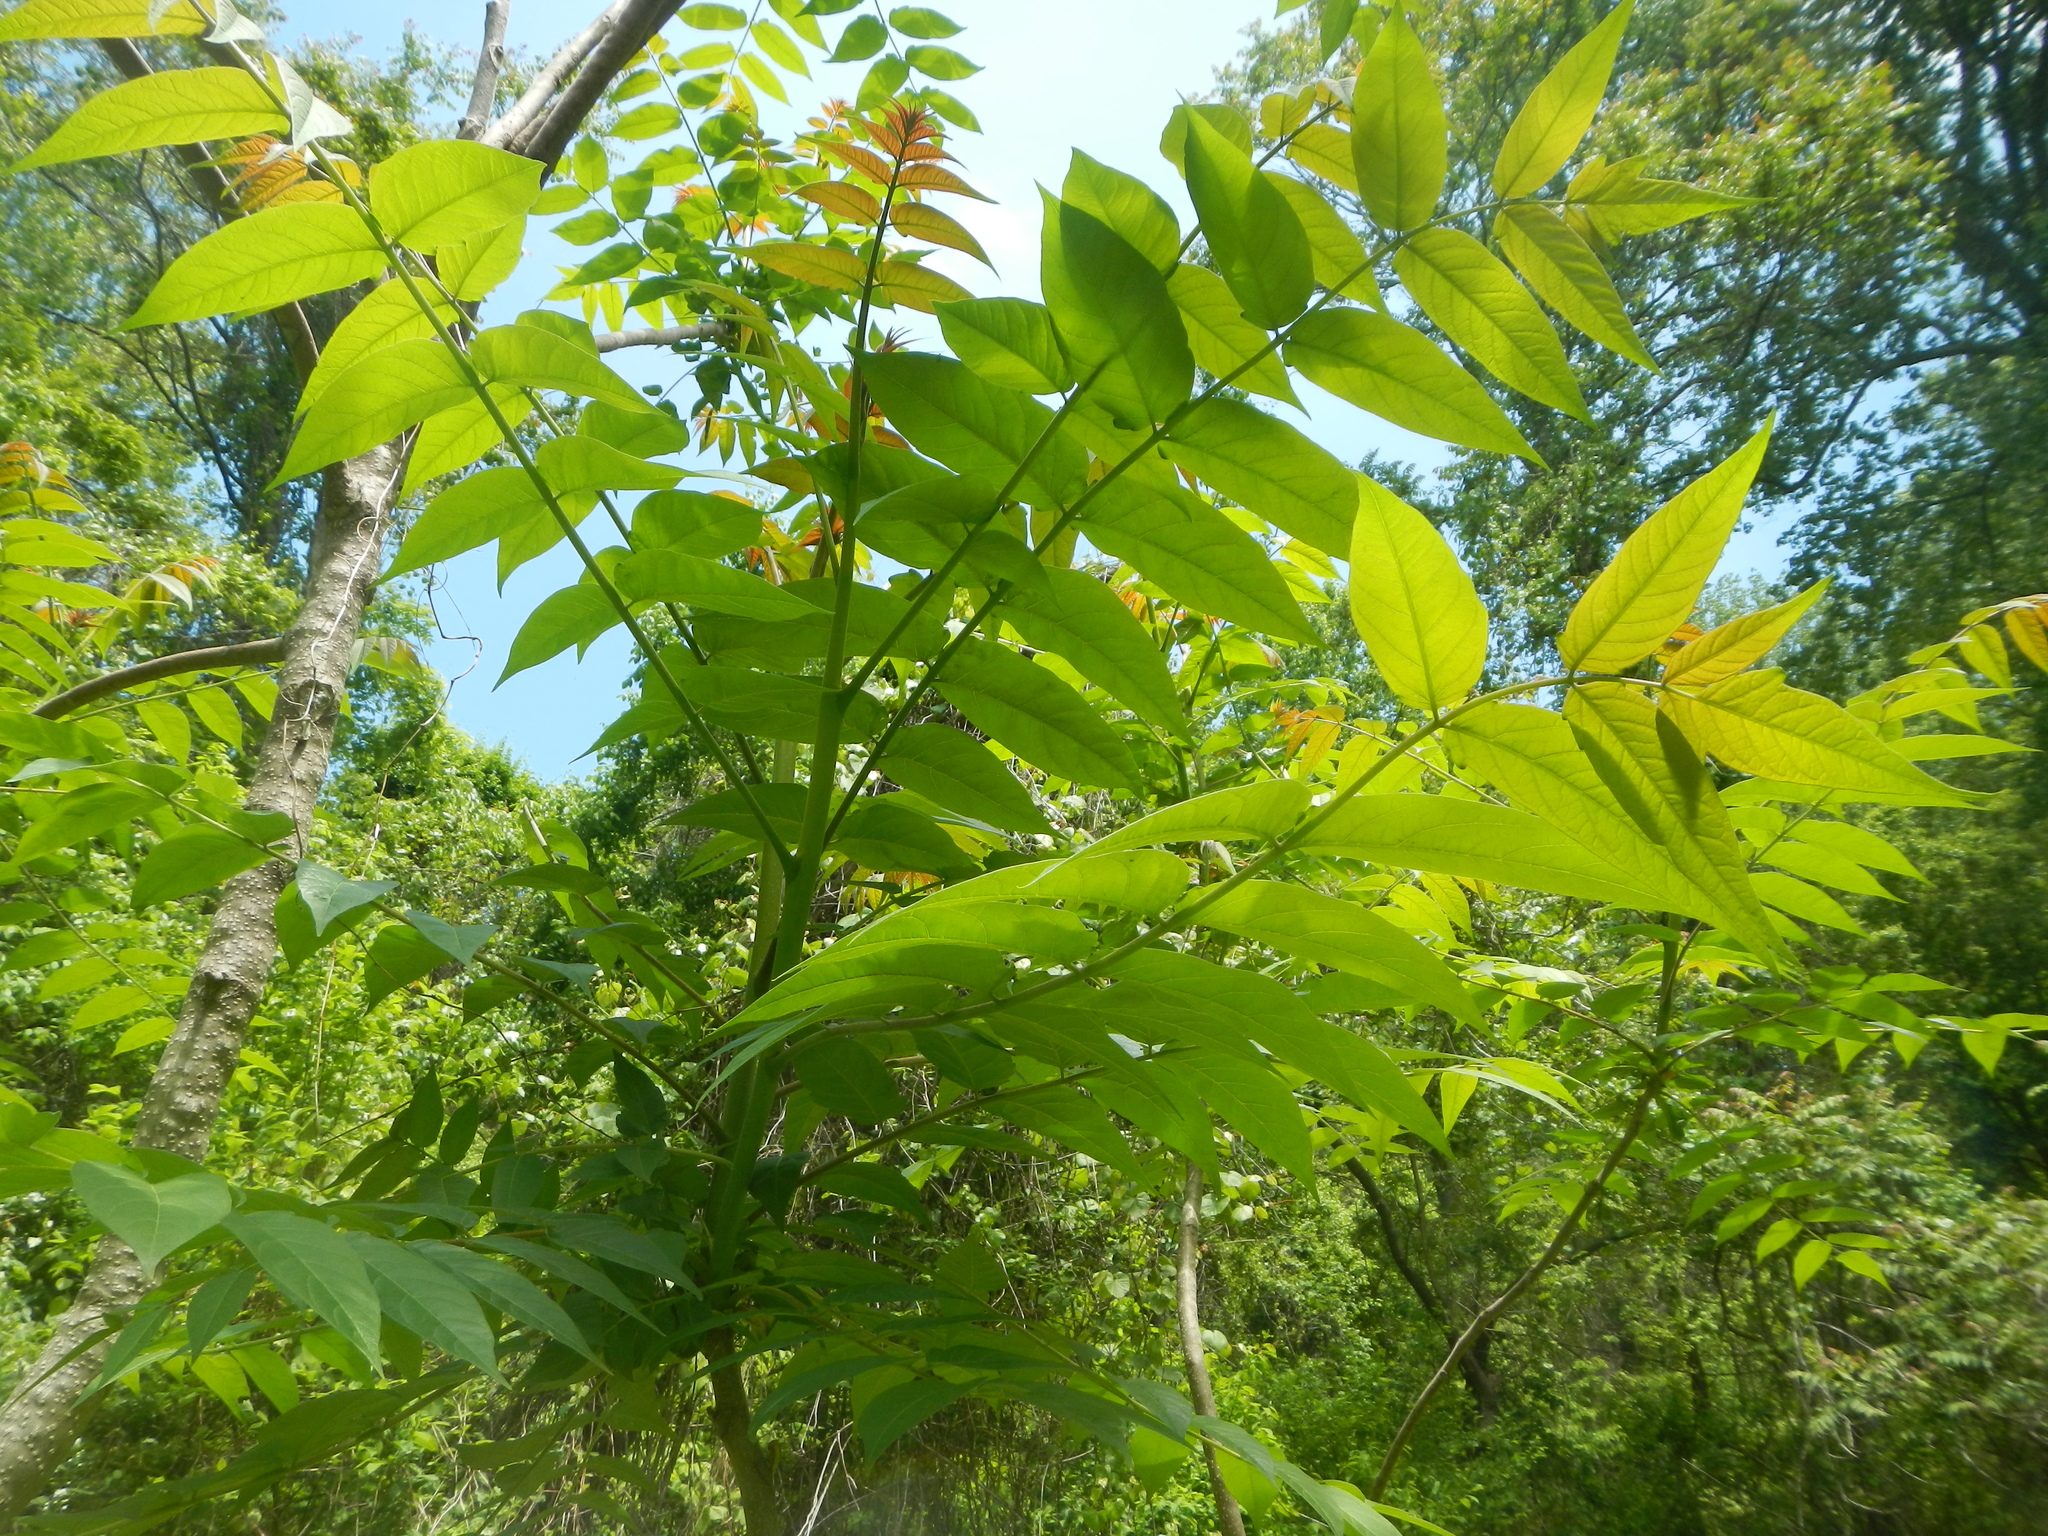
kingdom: Plantae
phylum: Tracheophyta
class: Magnoliopsida
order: Sapindales
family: Simaroubaceae
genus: Ailanthus
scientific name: Ailanthus altissima
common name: Tree-of-heaven
